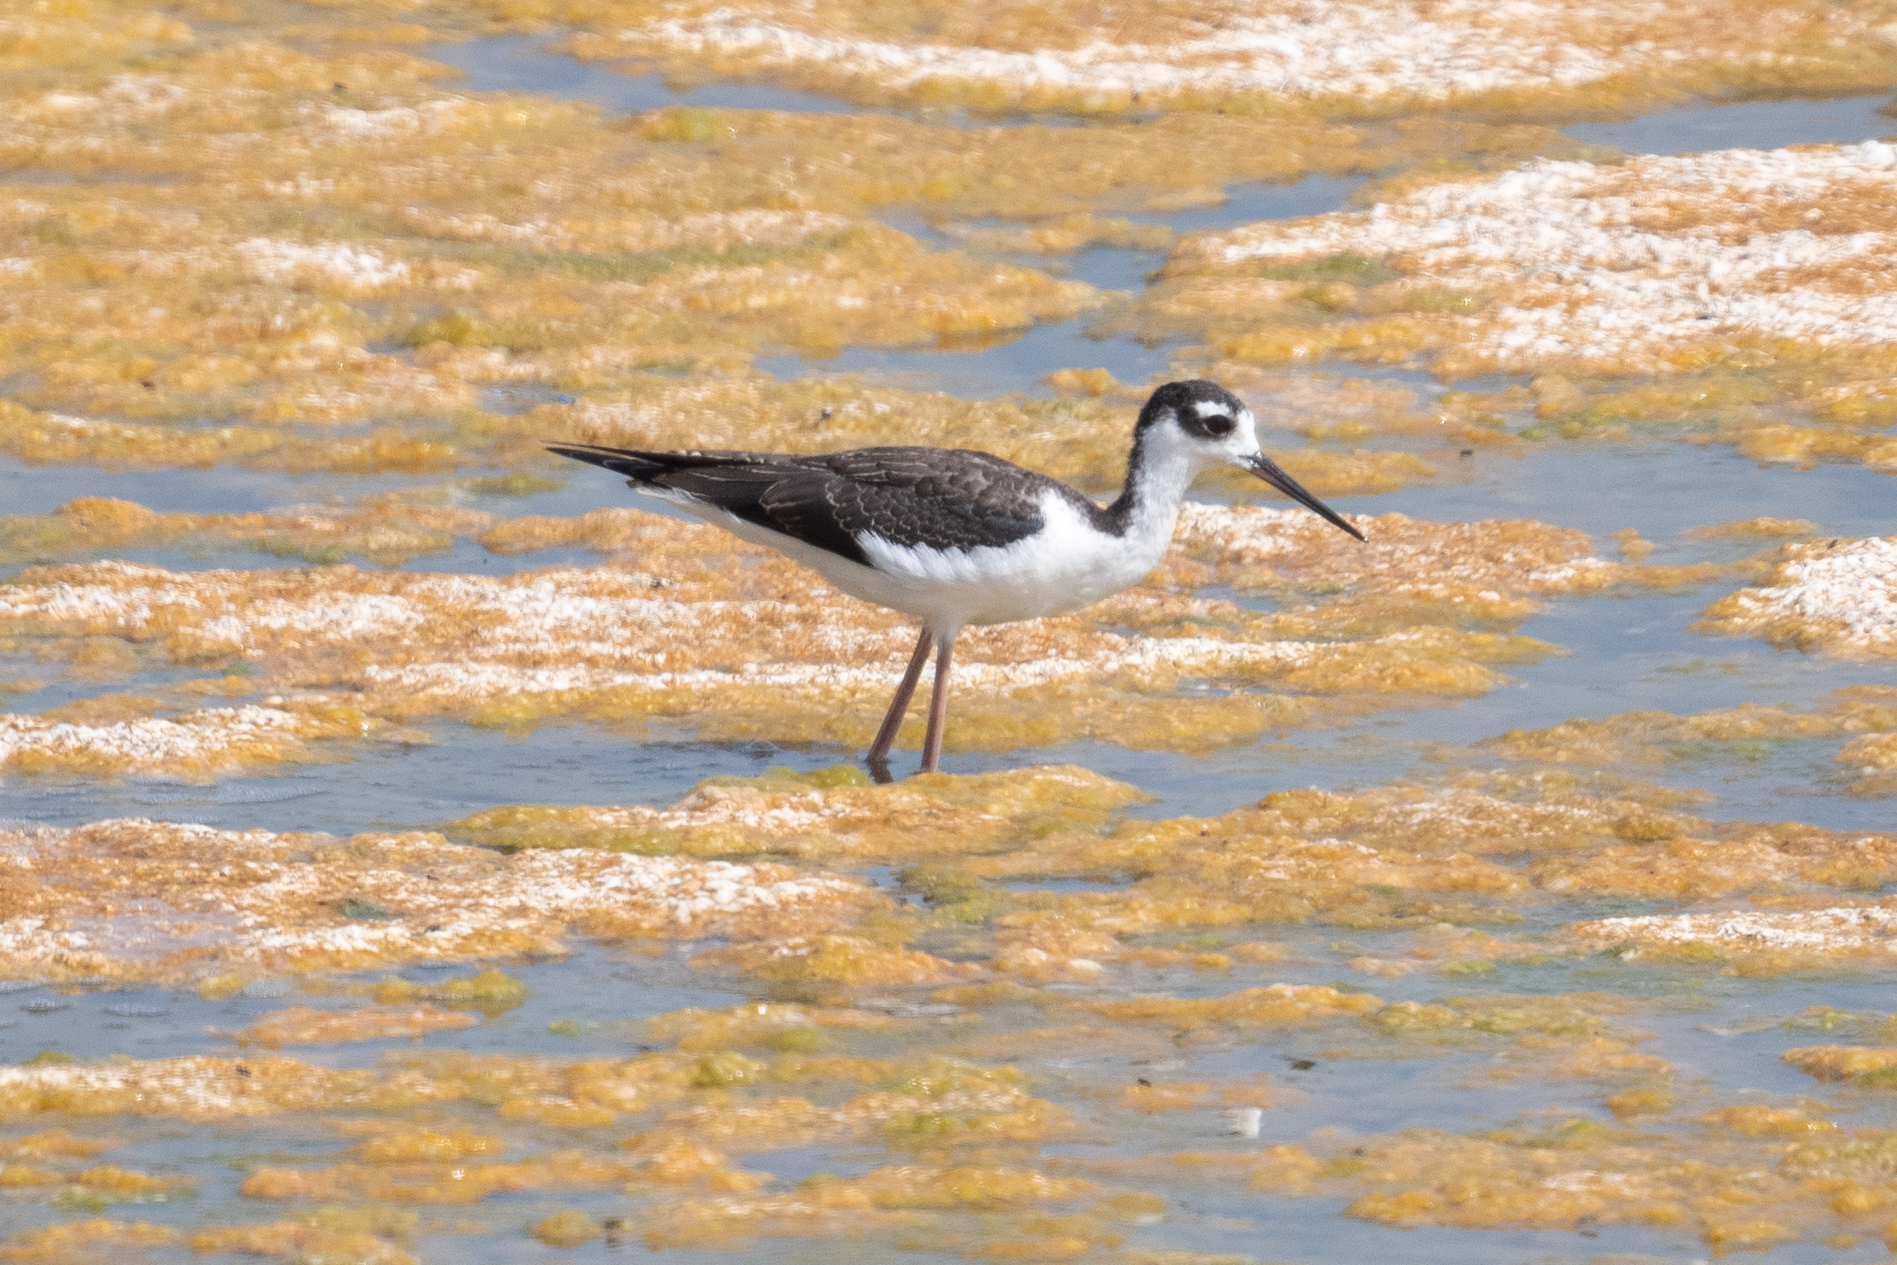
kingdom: Animalia
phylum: Chordata
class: Aves
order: Charadriiformes
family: Recurvirostridae
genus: Himantopus
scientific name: Himantopus mexicanus
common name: Black-necked stilt
